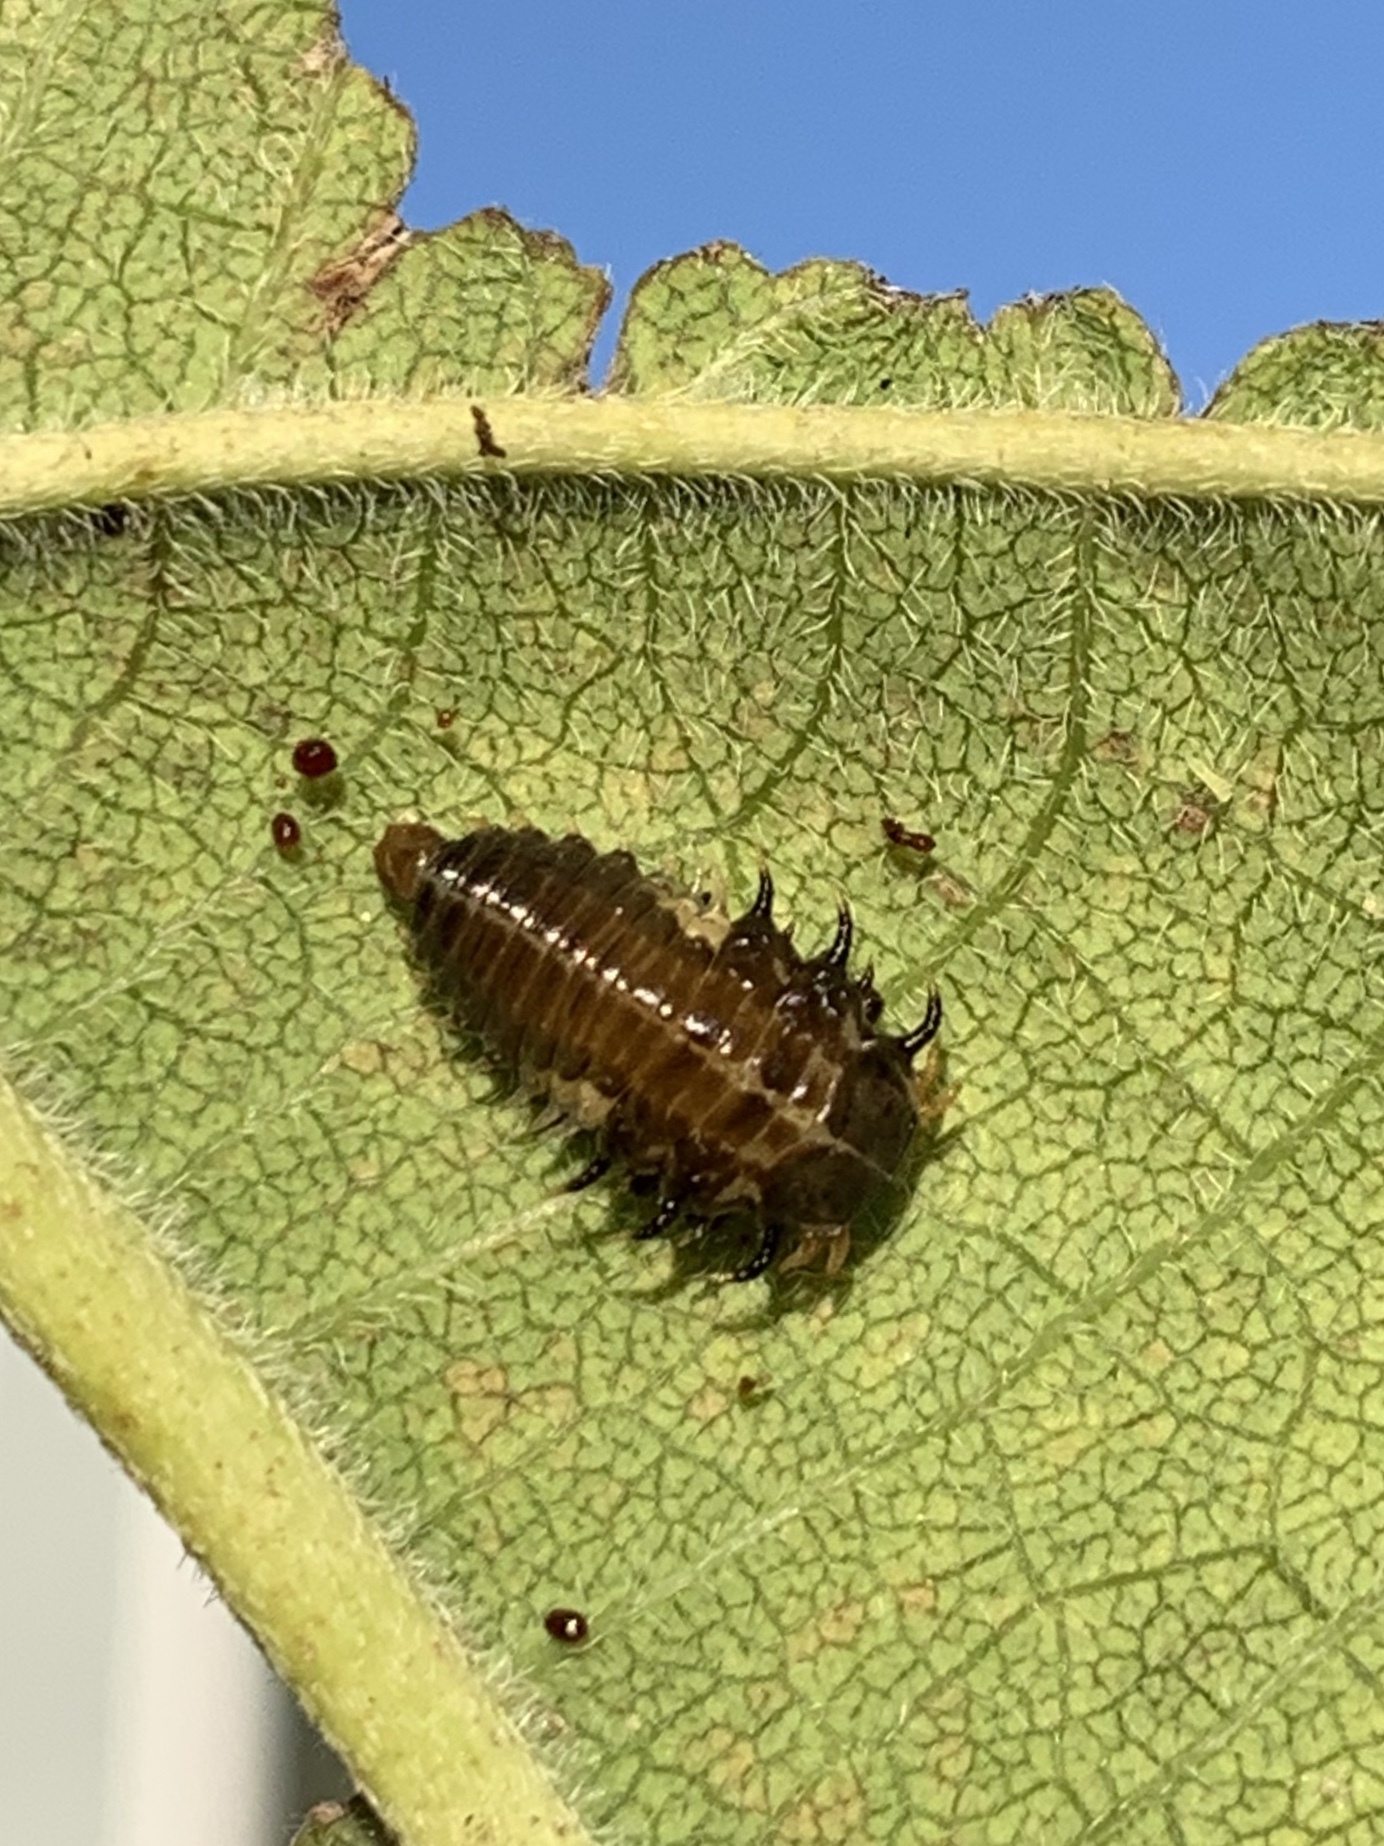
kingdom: Animalia
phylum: Arthropoda
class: Insecta
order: Coleoptera
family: Chrysomelidae
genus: Eurypepla
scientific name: Eurypepla calochroma
